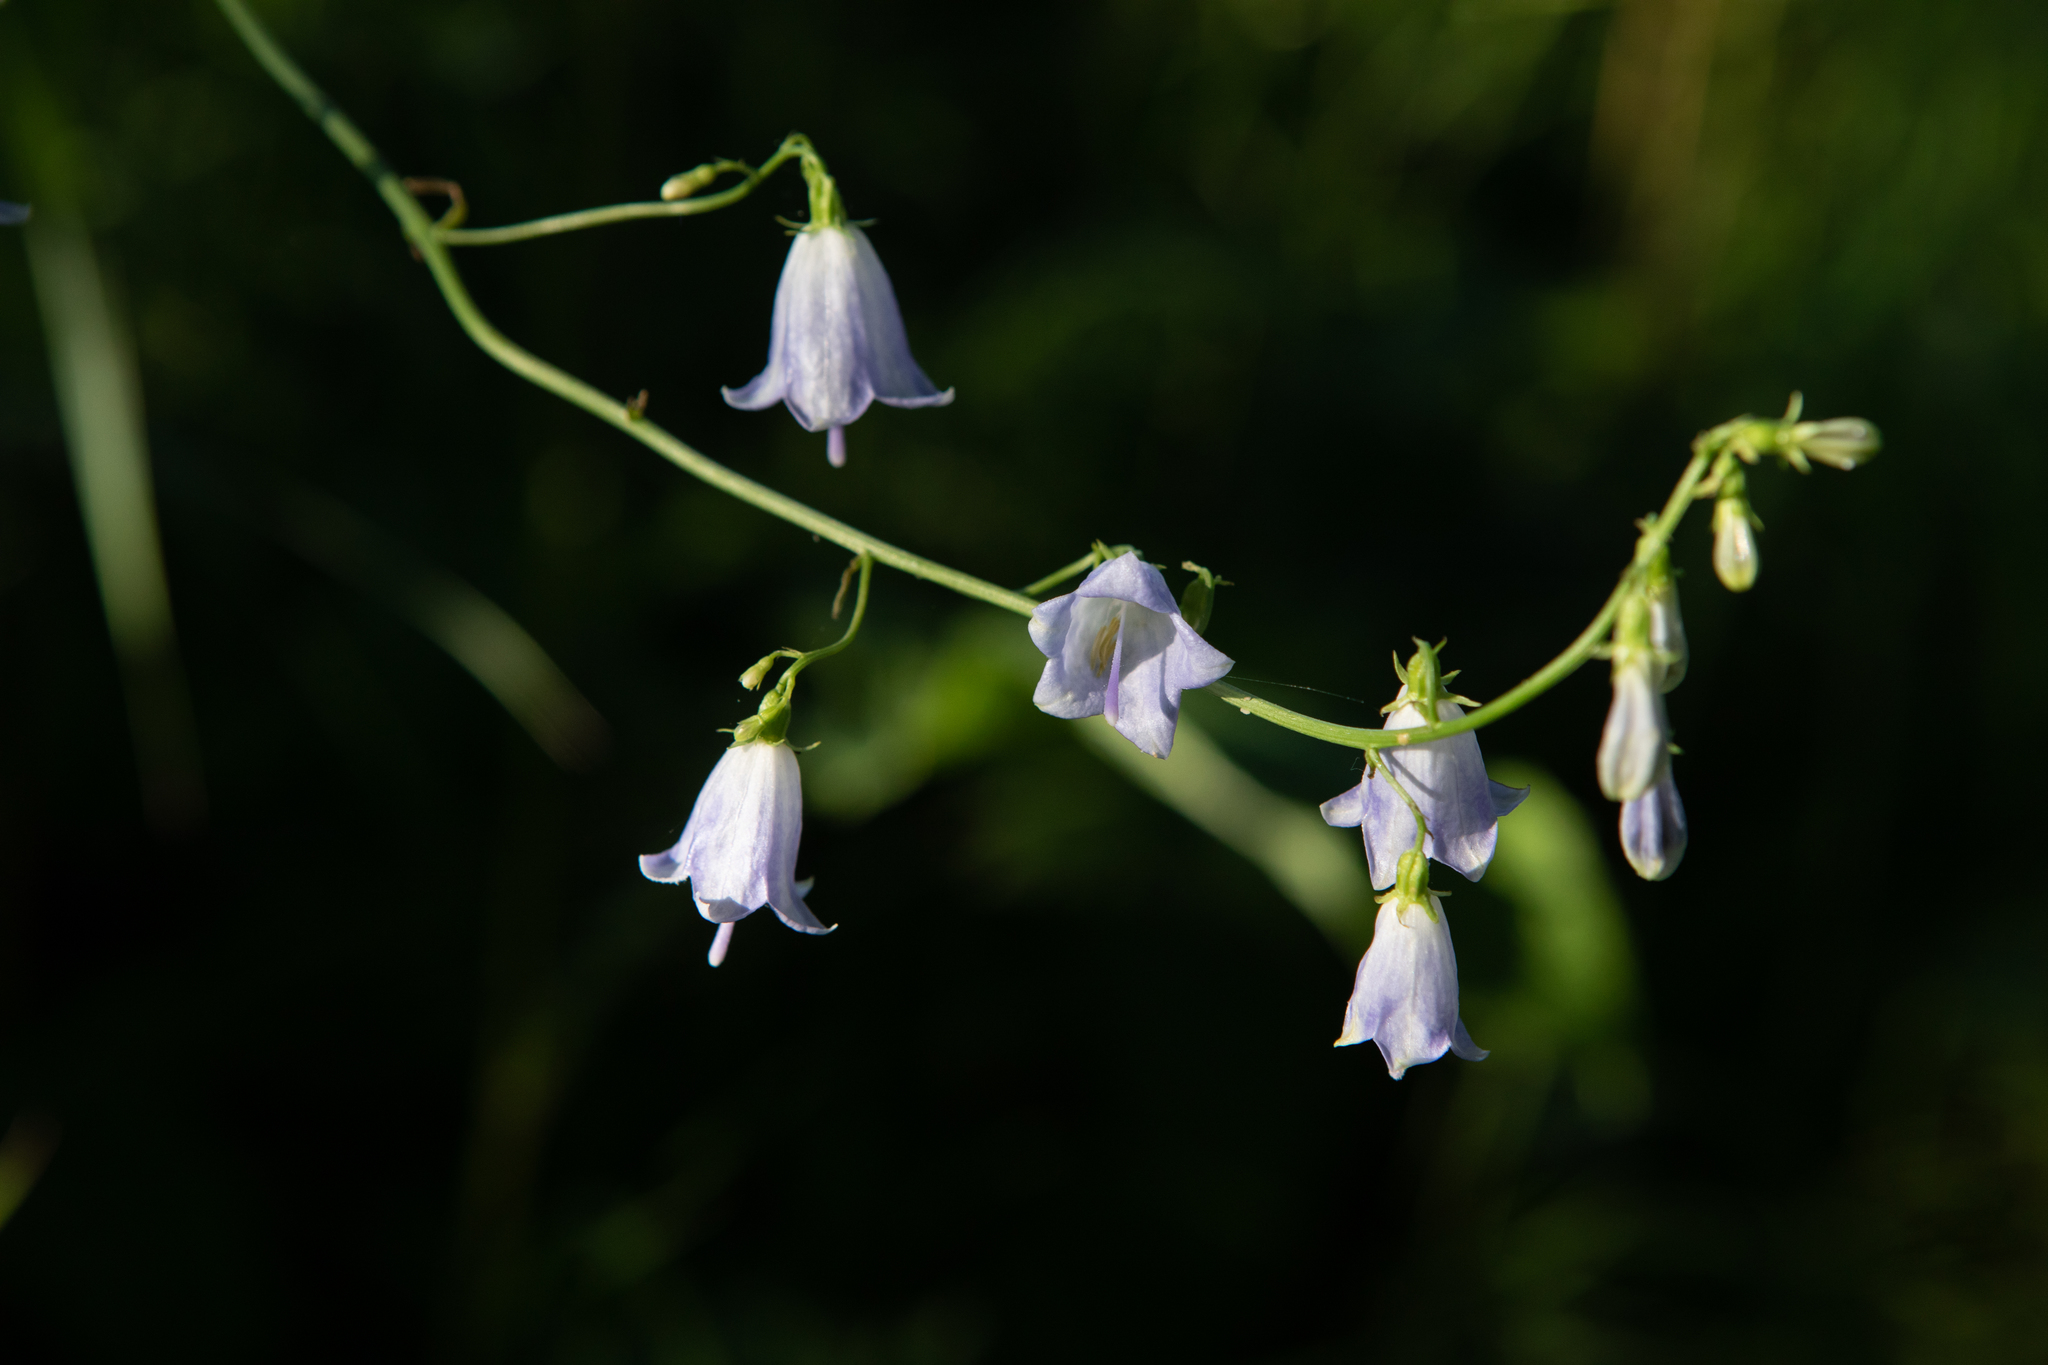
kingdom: Plantae
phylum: Tracheophyta
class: Magnoliopsida
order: Asterales
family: Campanulaceae
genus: Adenophora
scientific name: Adenophora liliifolia
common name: Lilyleaf ladybells
